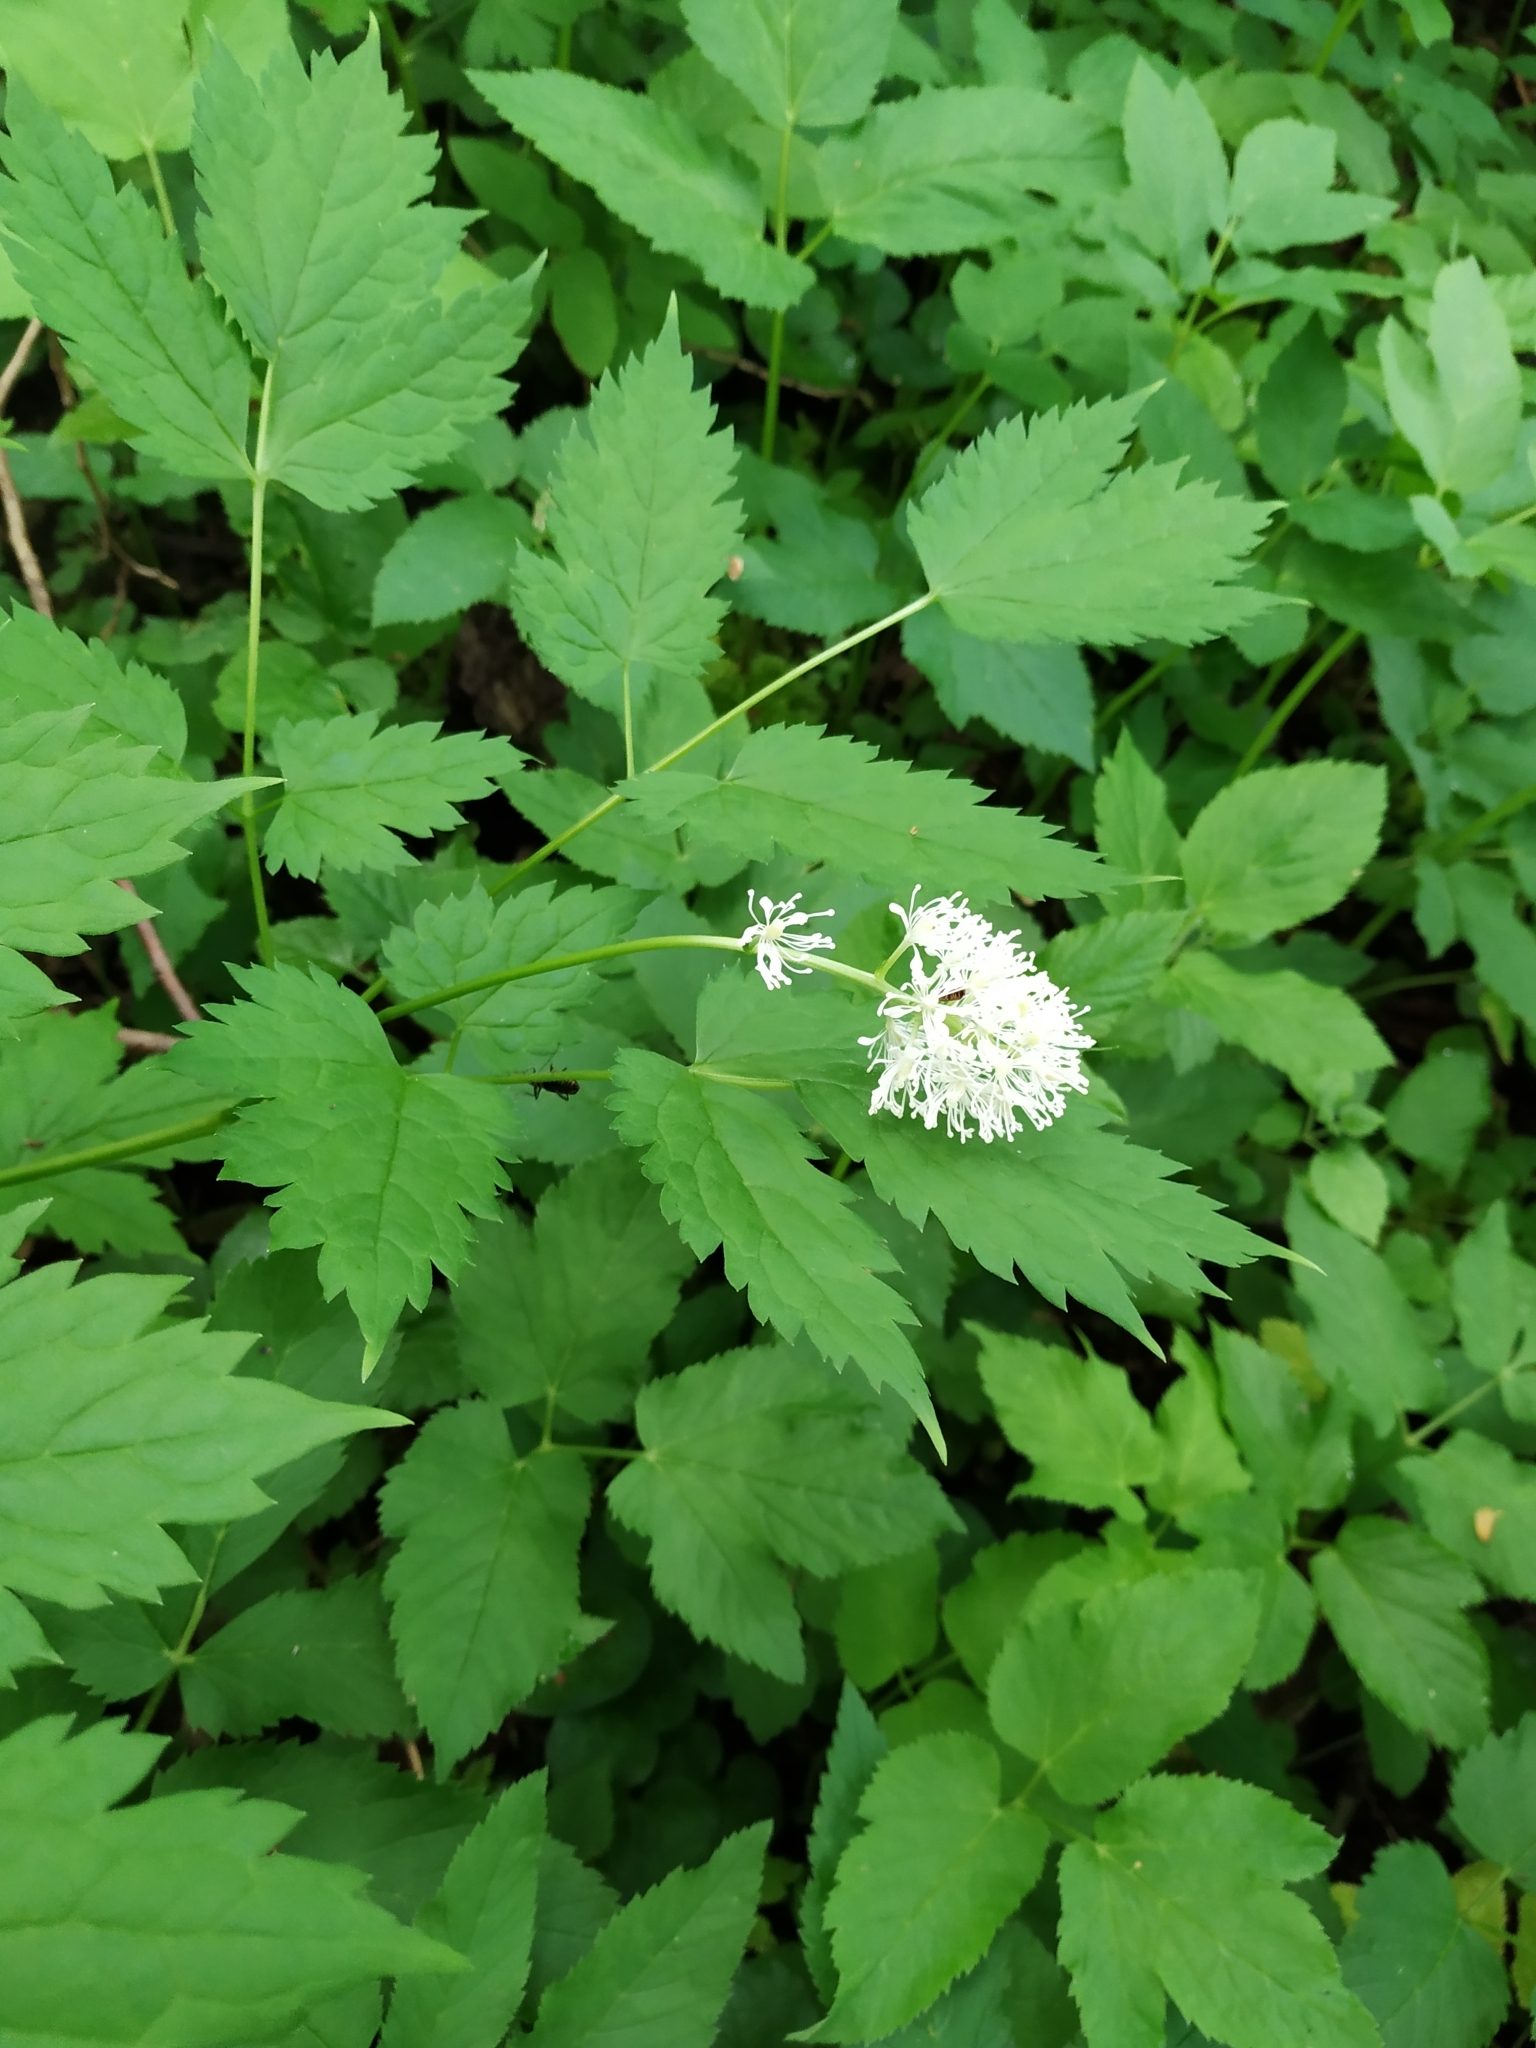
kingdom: Plantae
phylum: Tracheophyta
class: Magnoliopsida
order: Ranunculales
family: Ranunculaceae
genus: Actaea
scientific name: Actaea spicata
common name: Baneberry
